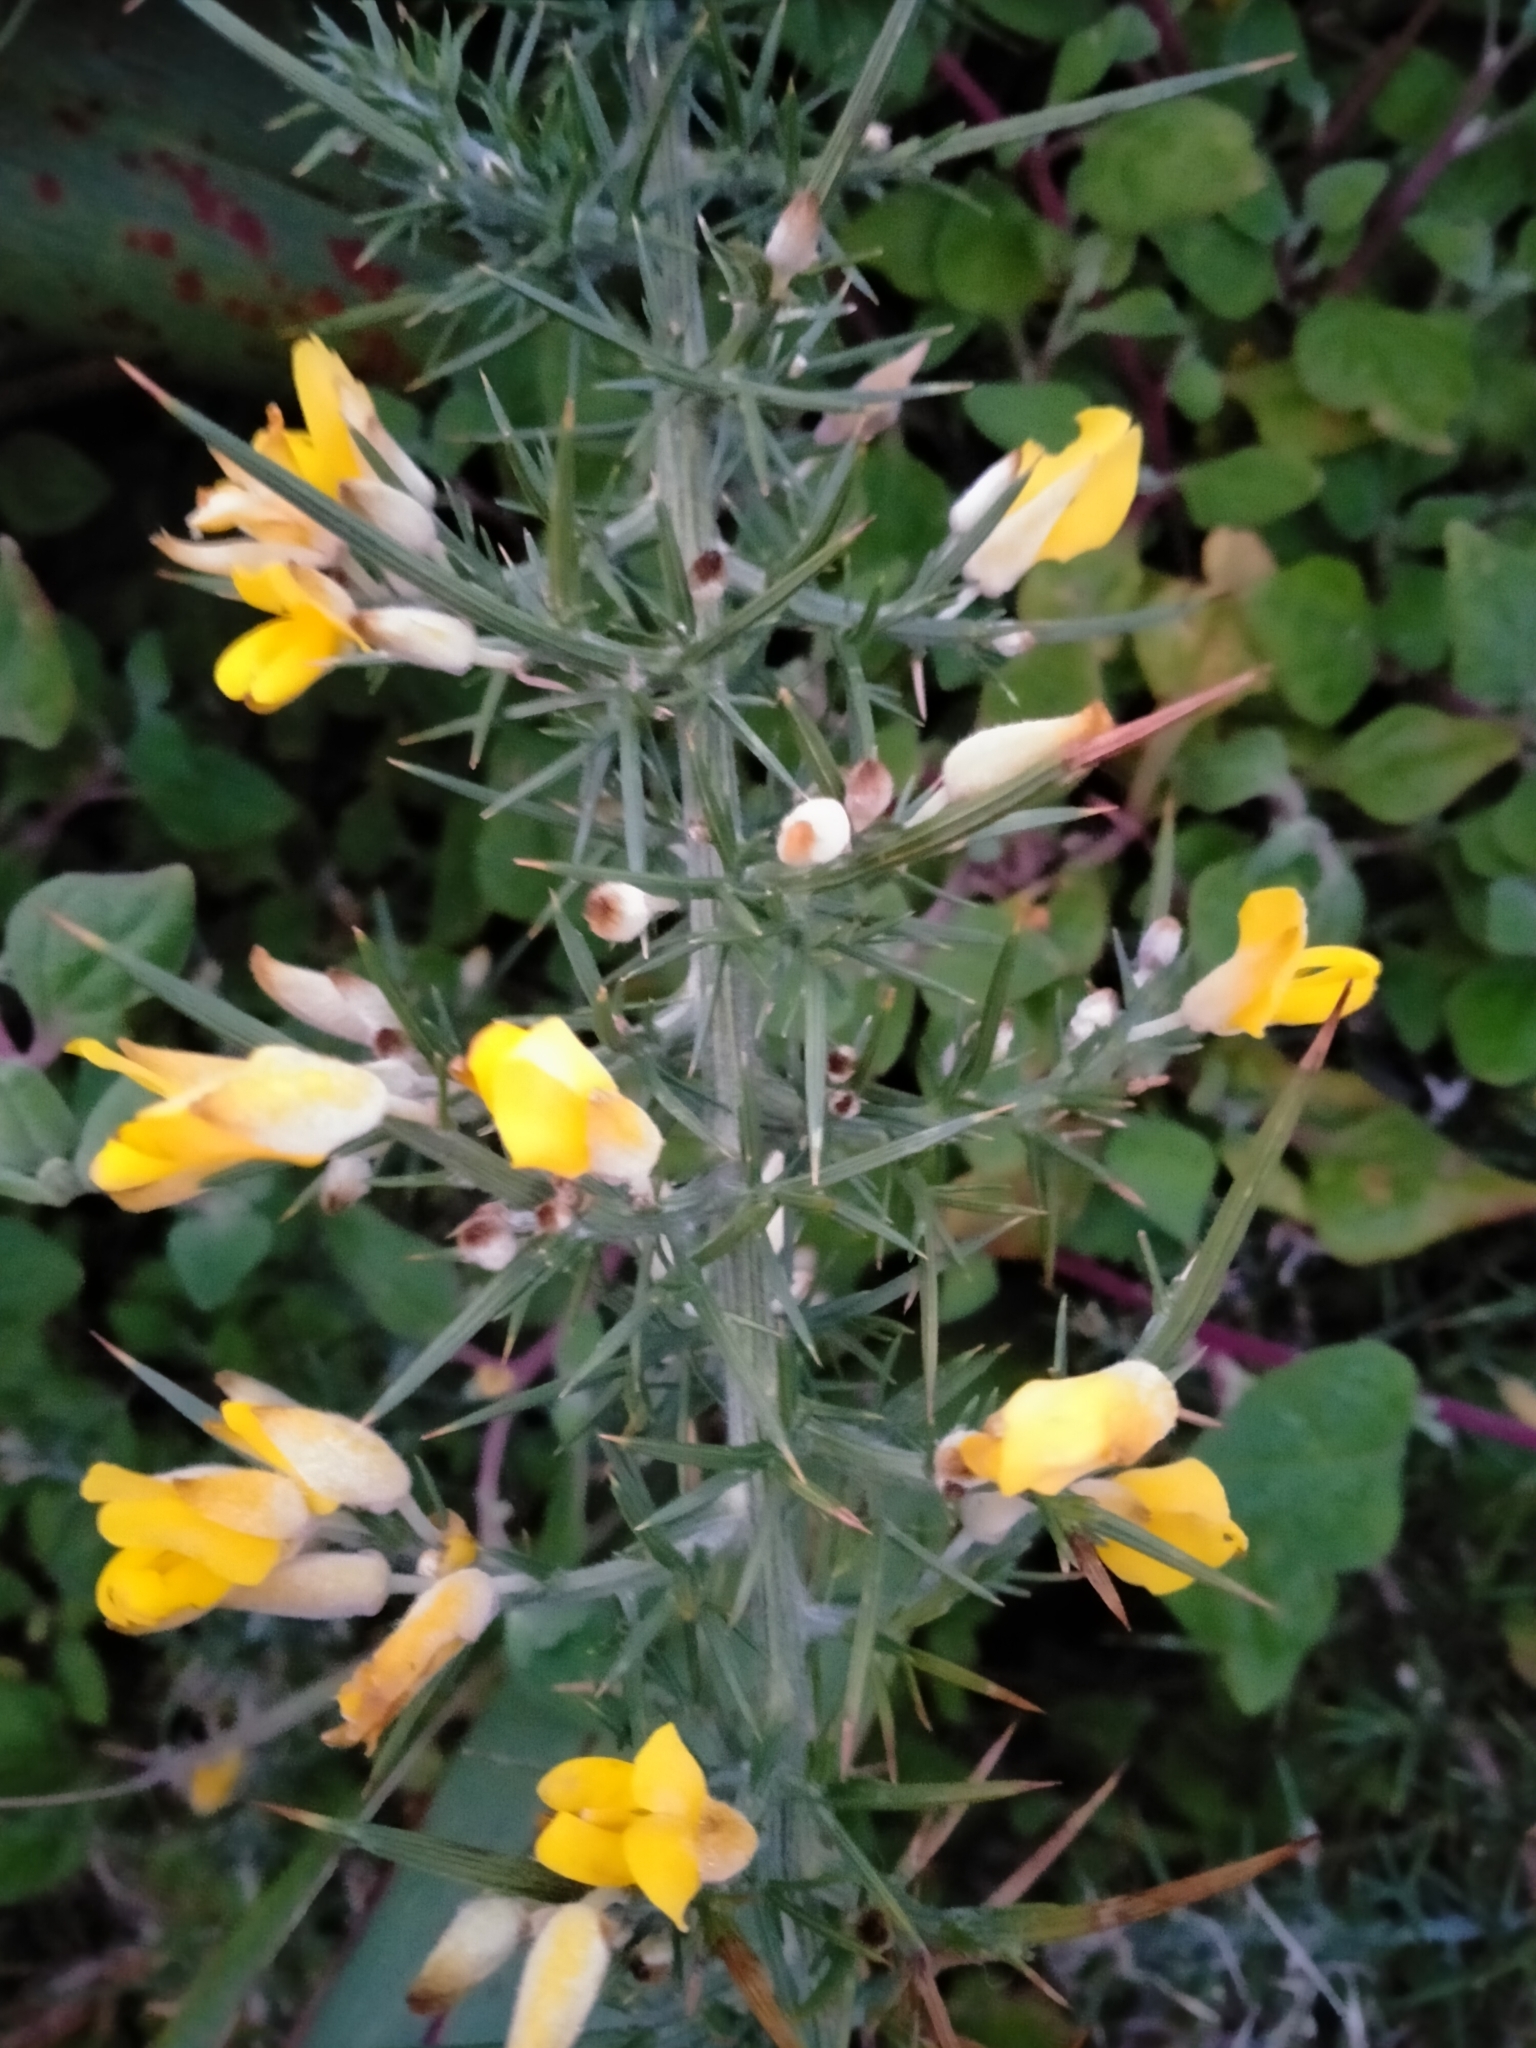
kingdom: Plantae
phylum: Tracheophyta
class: Magnoliopsida
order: Fabales
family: Fabaceae
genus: Ulex
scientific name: Ulex europaeus
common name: Common gorse
